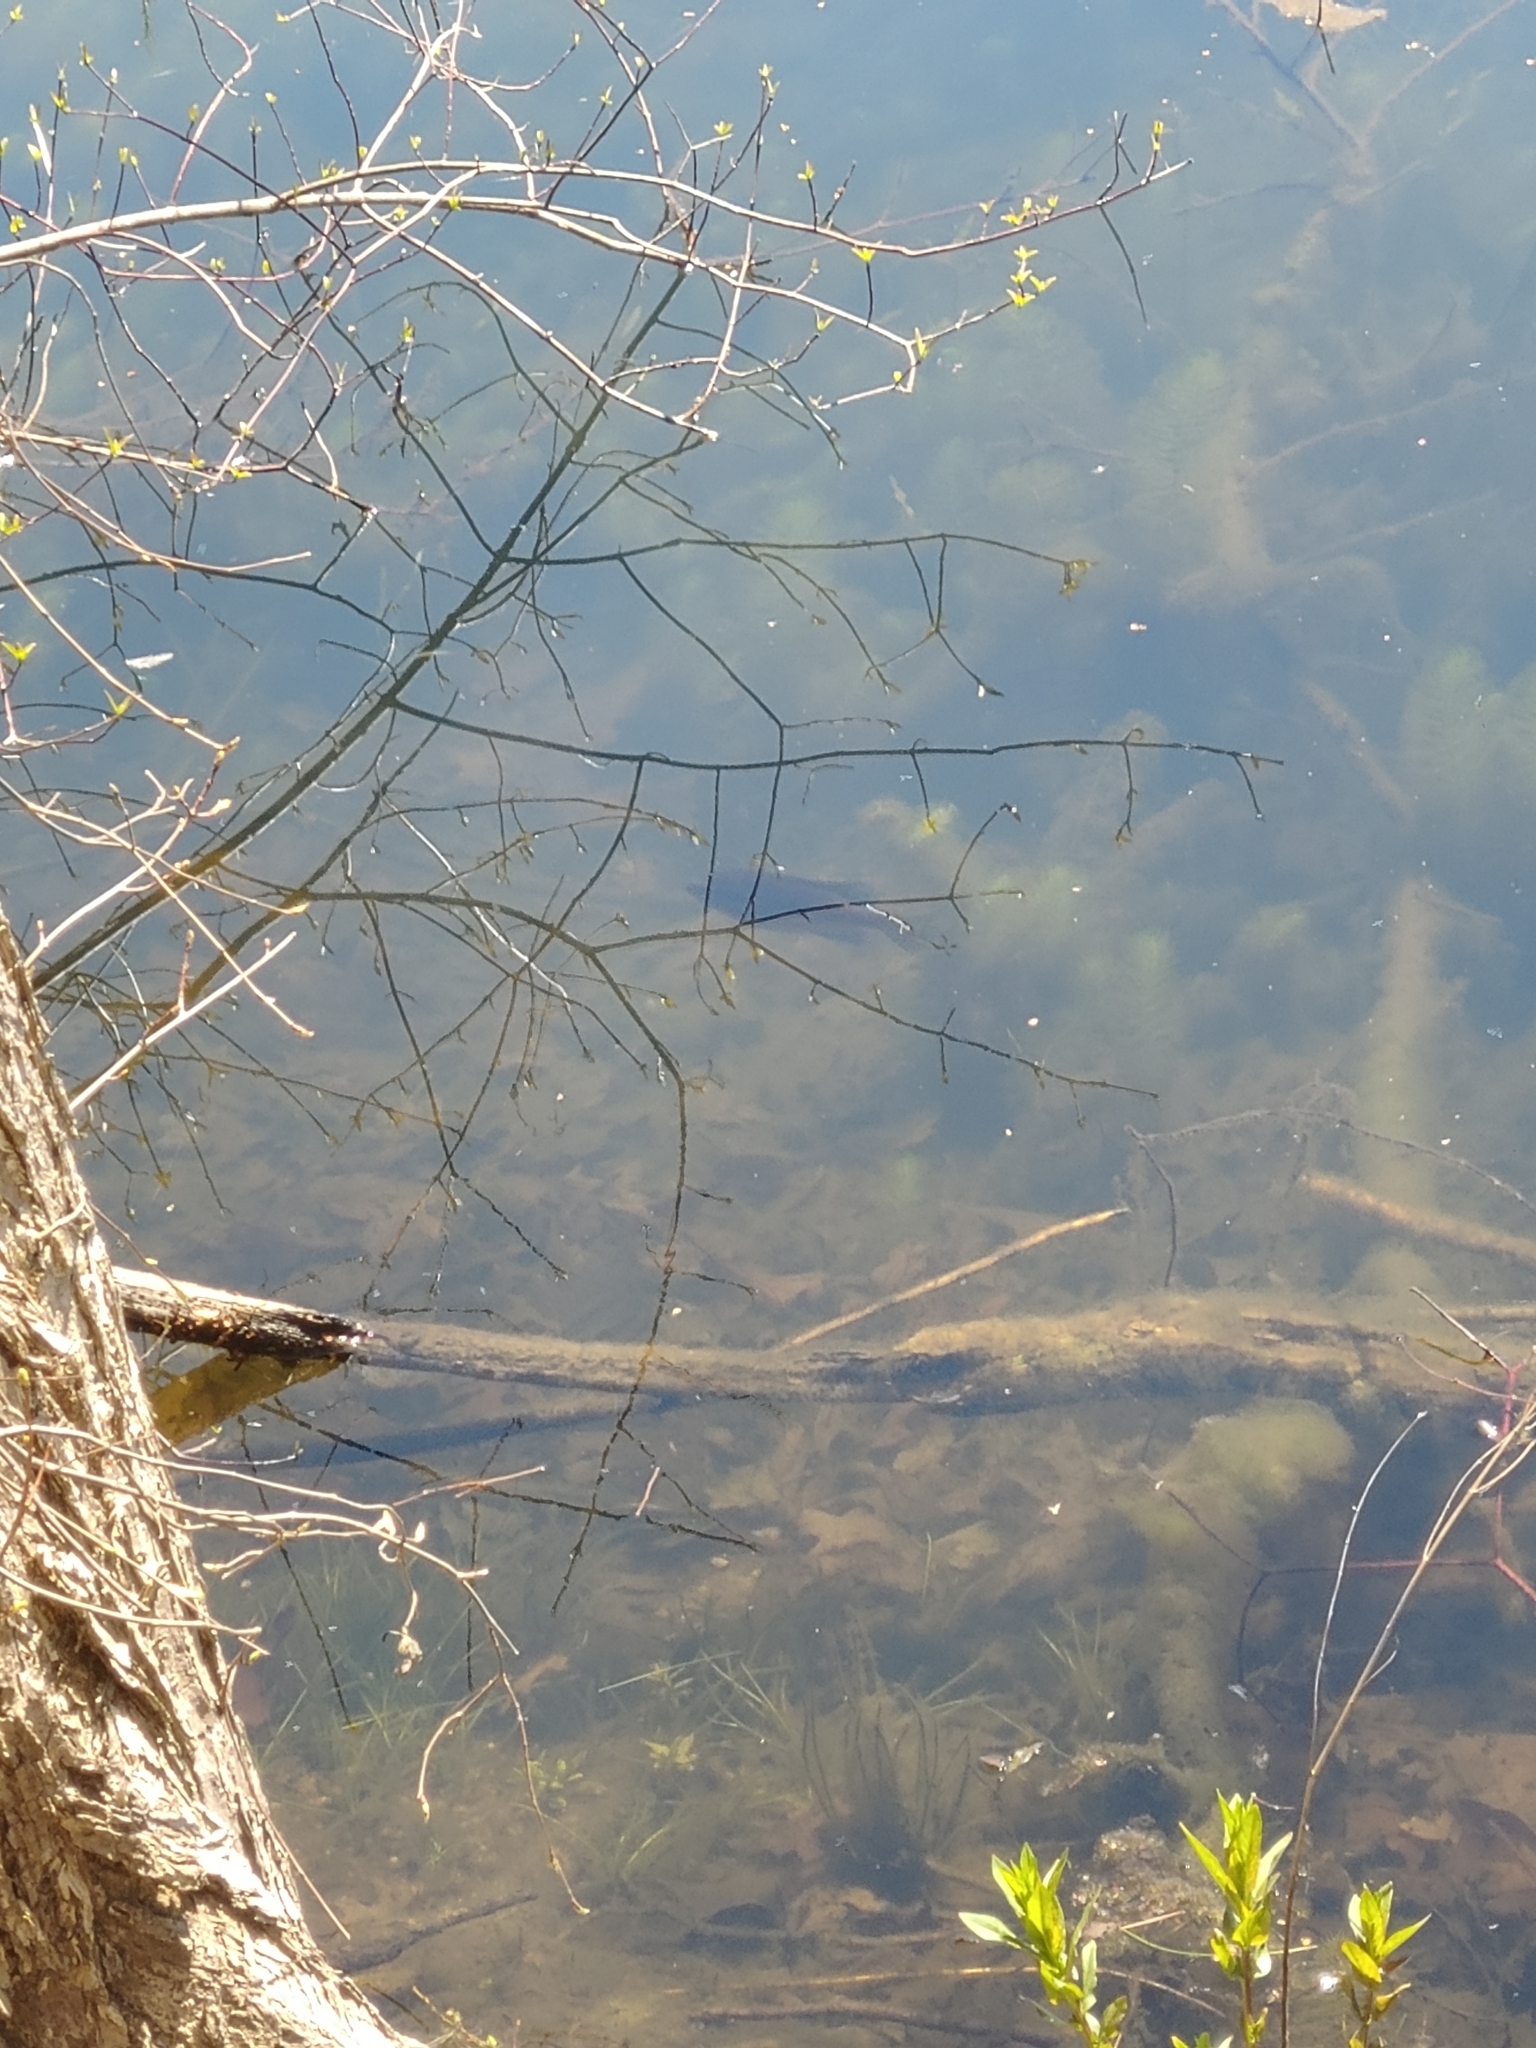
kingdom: Animalia
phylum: Chordata
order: Perciformes
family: Centrarchidae
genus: Lepomis
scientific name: Lepomis
